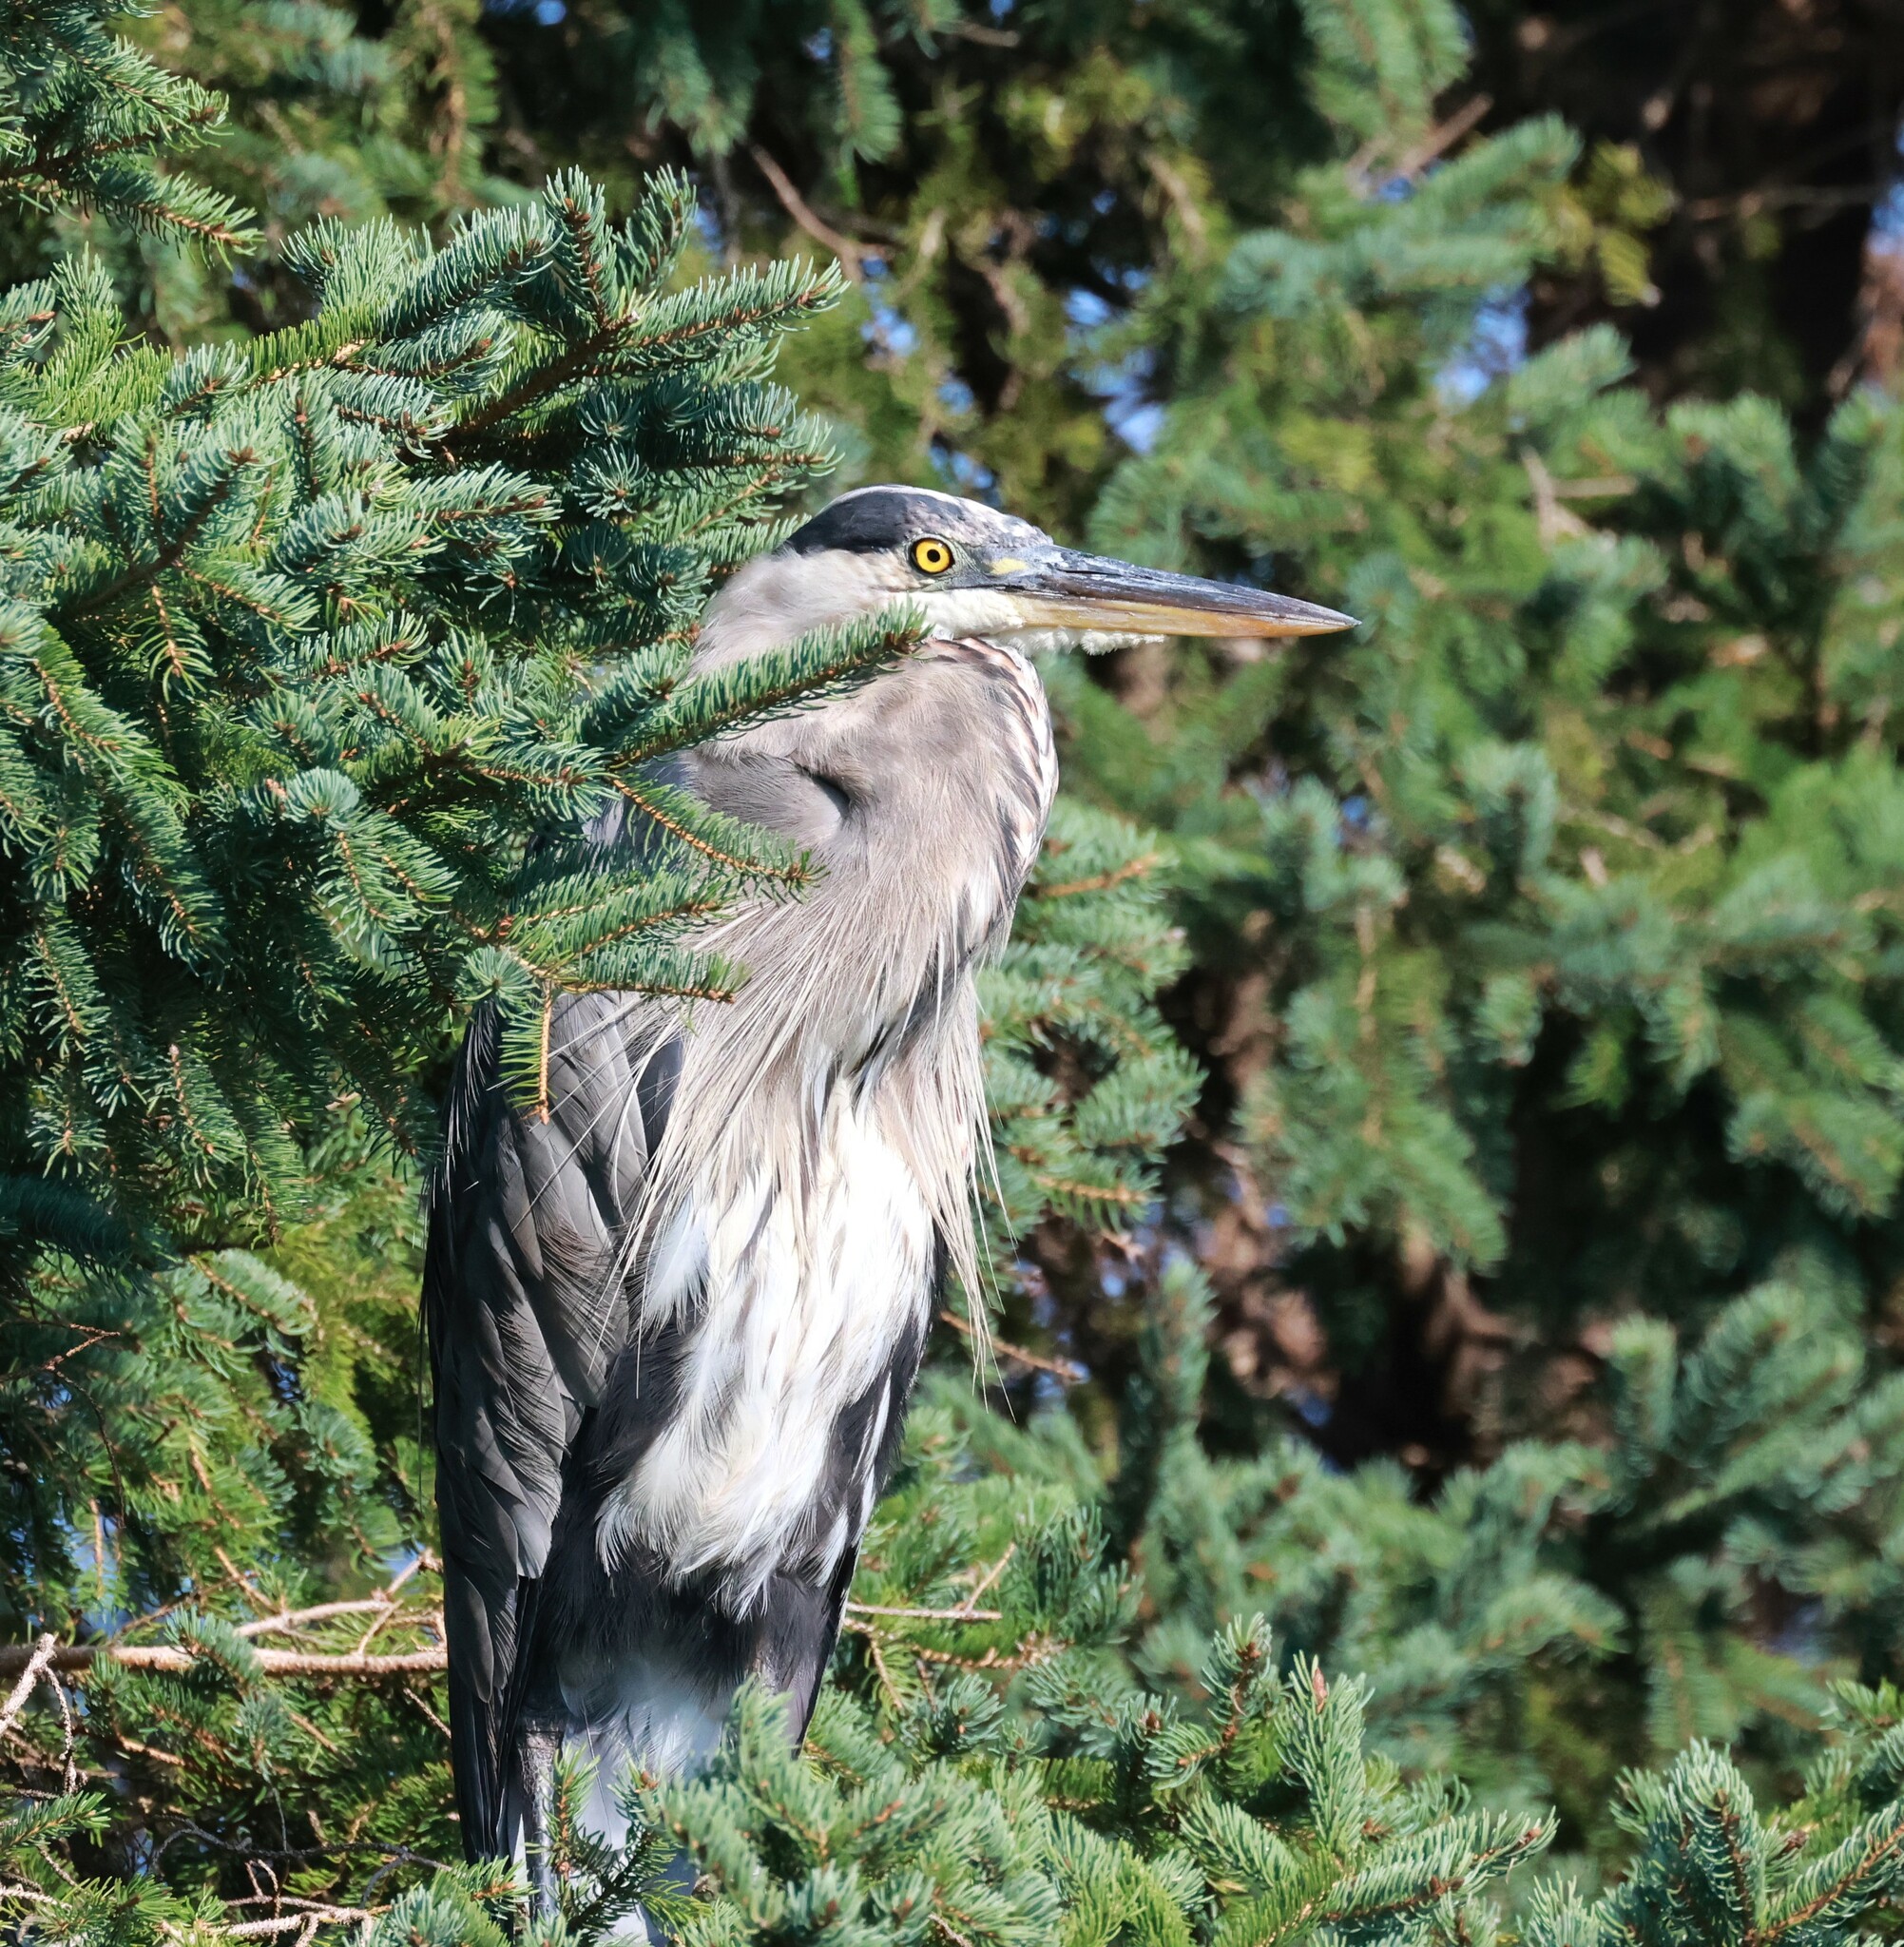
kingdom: Animalia
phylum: Chordata
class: Aves
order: Pelecaniformes
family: Ardeidae
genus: Ardea
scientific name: Ardea herodias
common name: Great blue heron
